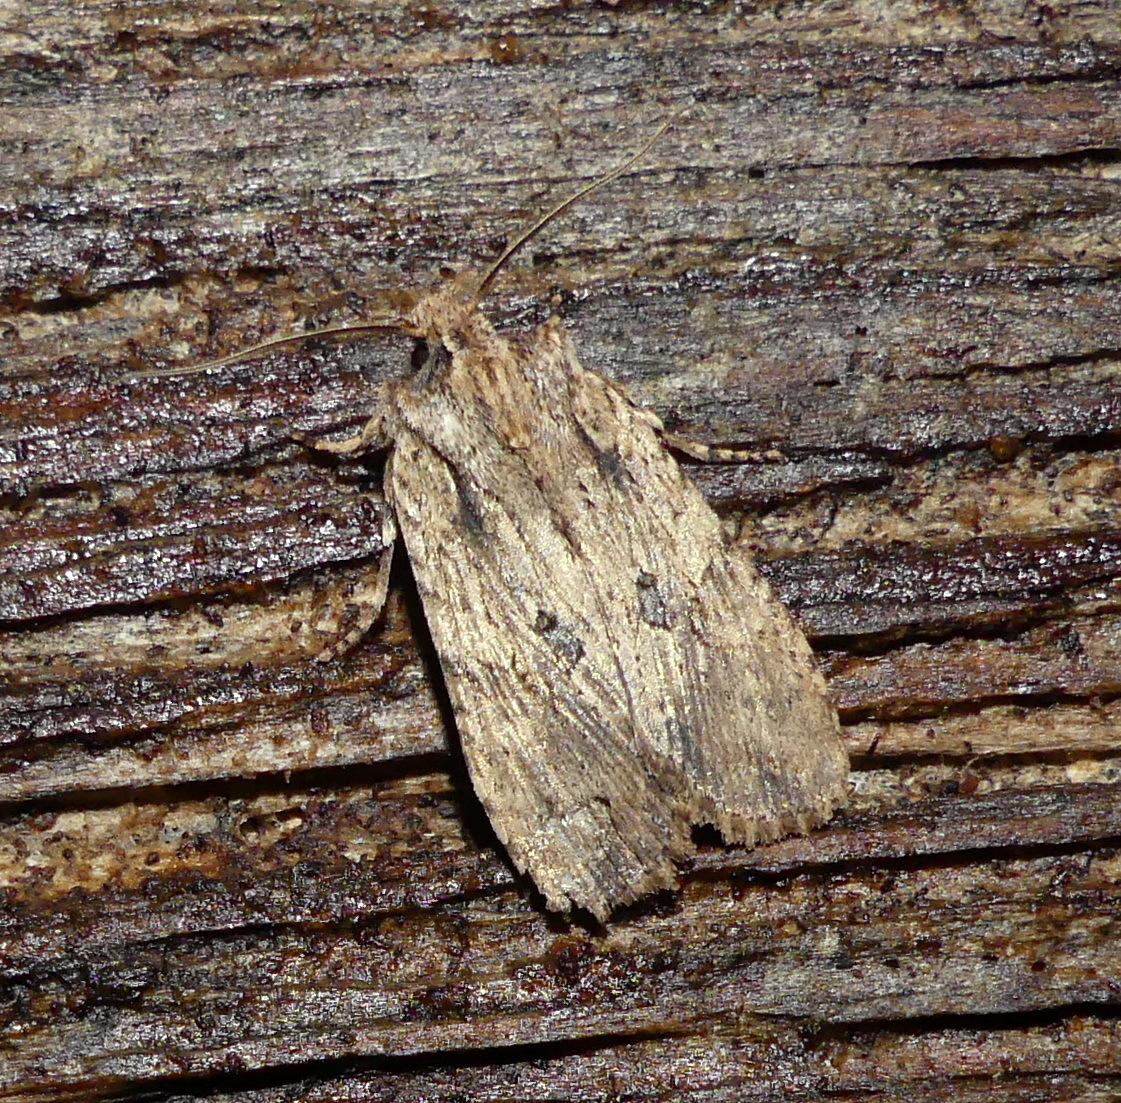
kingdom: Animalia
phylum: Arthropoda
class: Insecta
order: Lepidoptera
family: Noctuidae
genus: Lithophane
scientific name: Lithophane patefacta
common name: Dimorphic pinion moth
